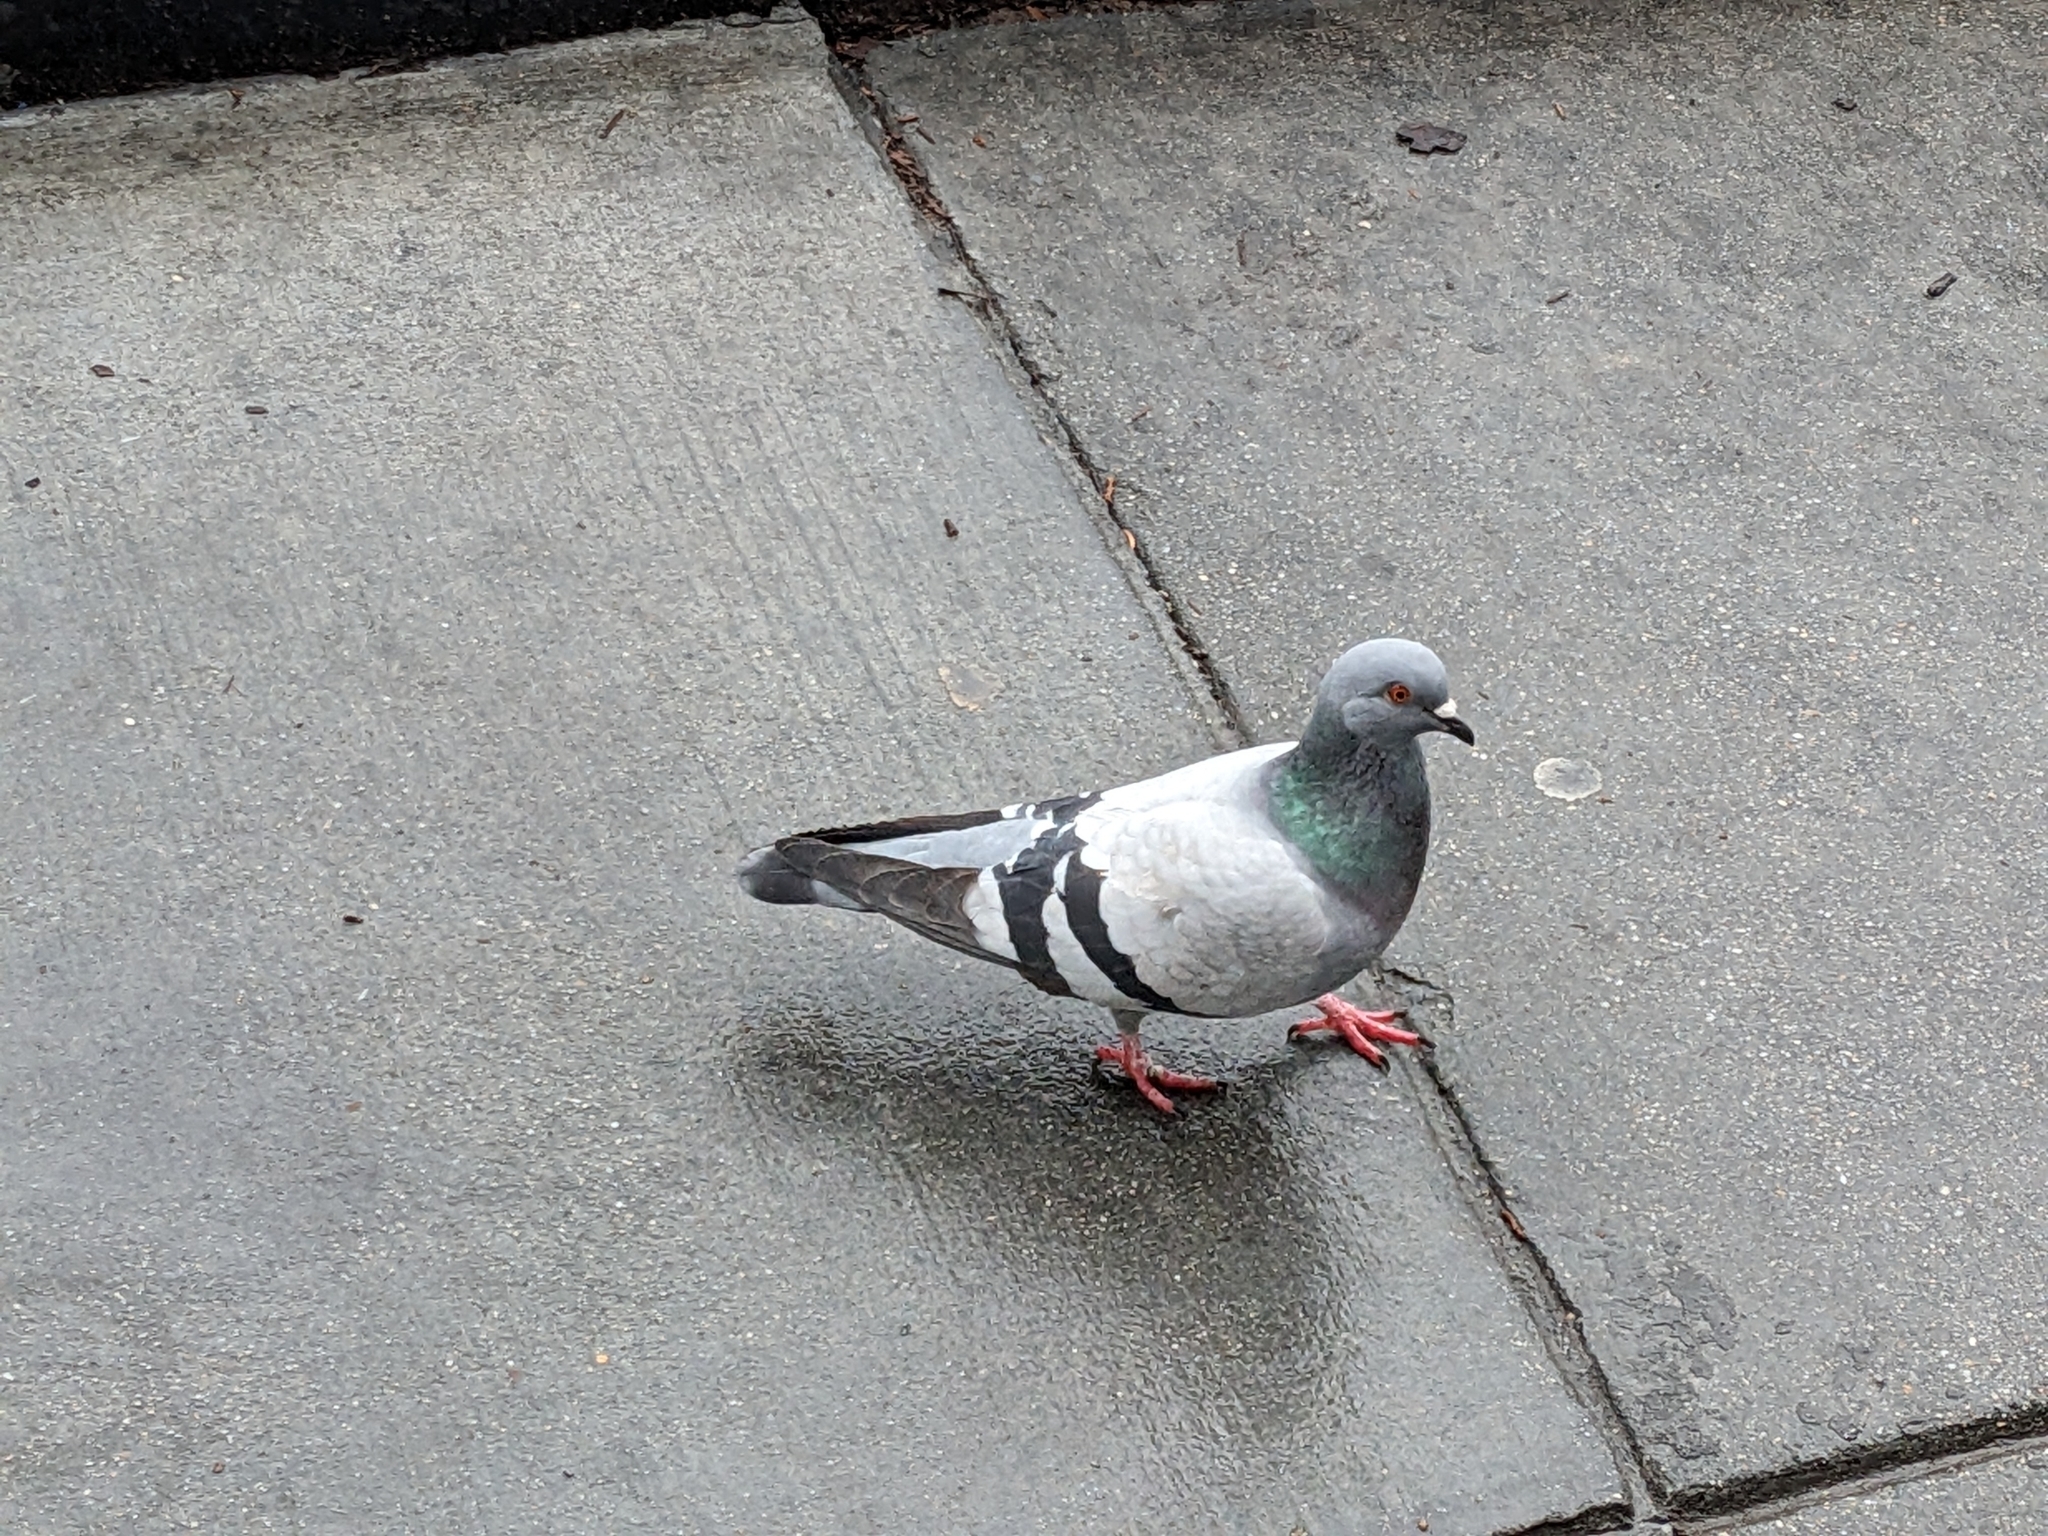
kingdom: Animalia
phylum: Chordata
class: Aves
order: Columbiformes
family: Columbidae
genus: Columba
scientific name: Columba livia
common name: Rock pigeon
